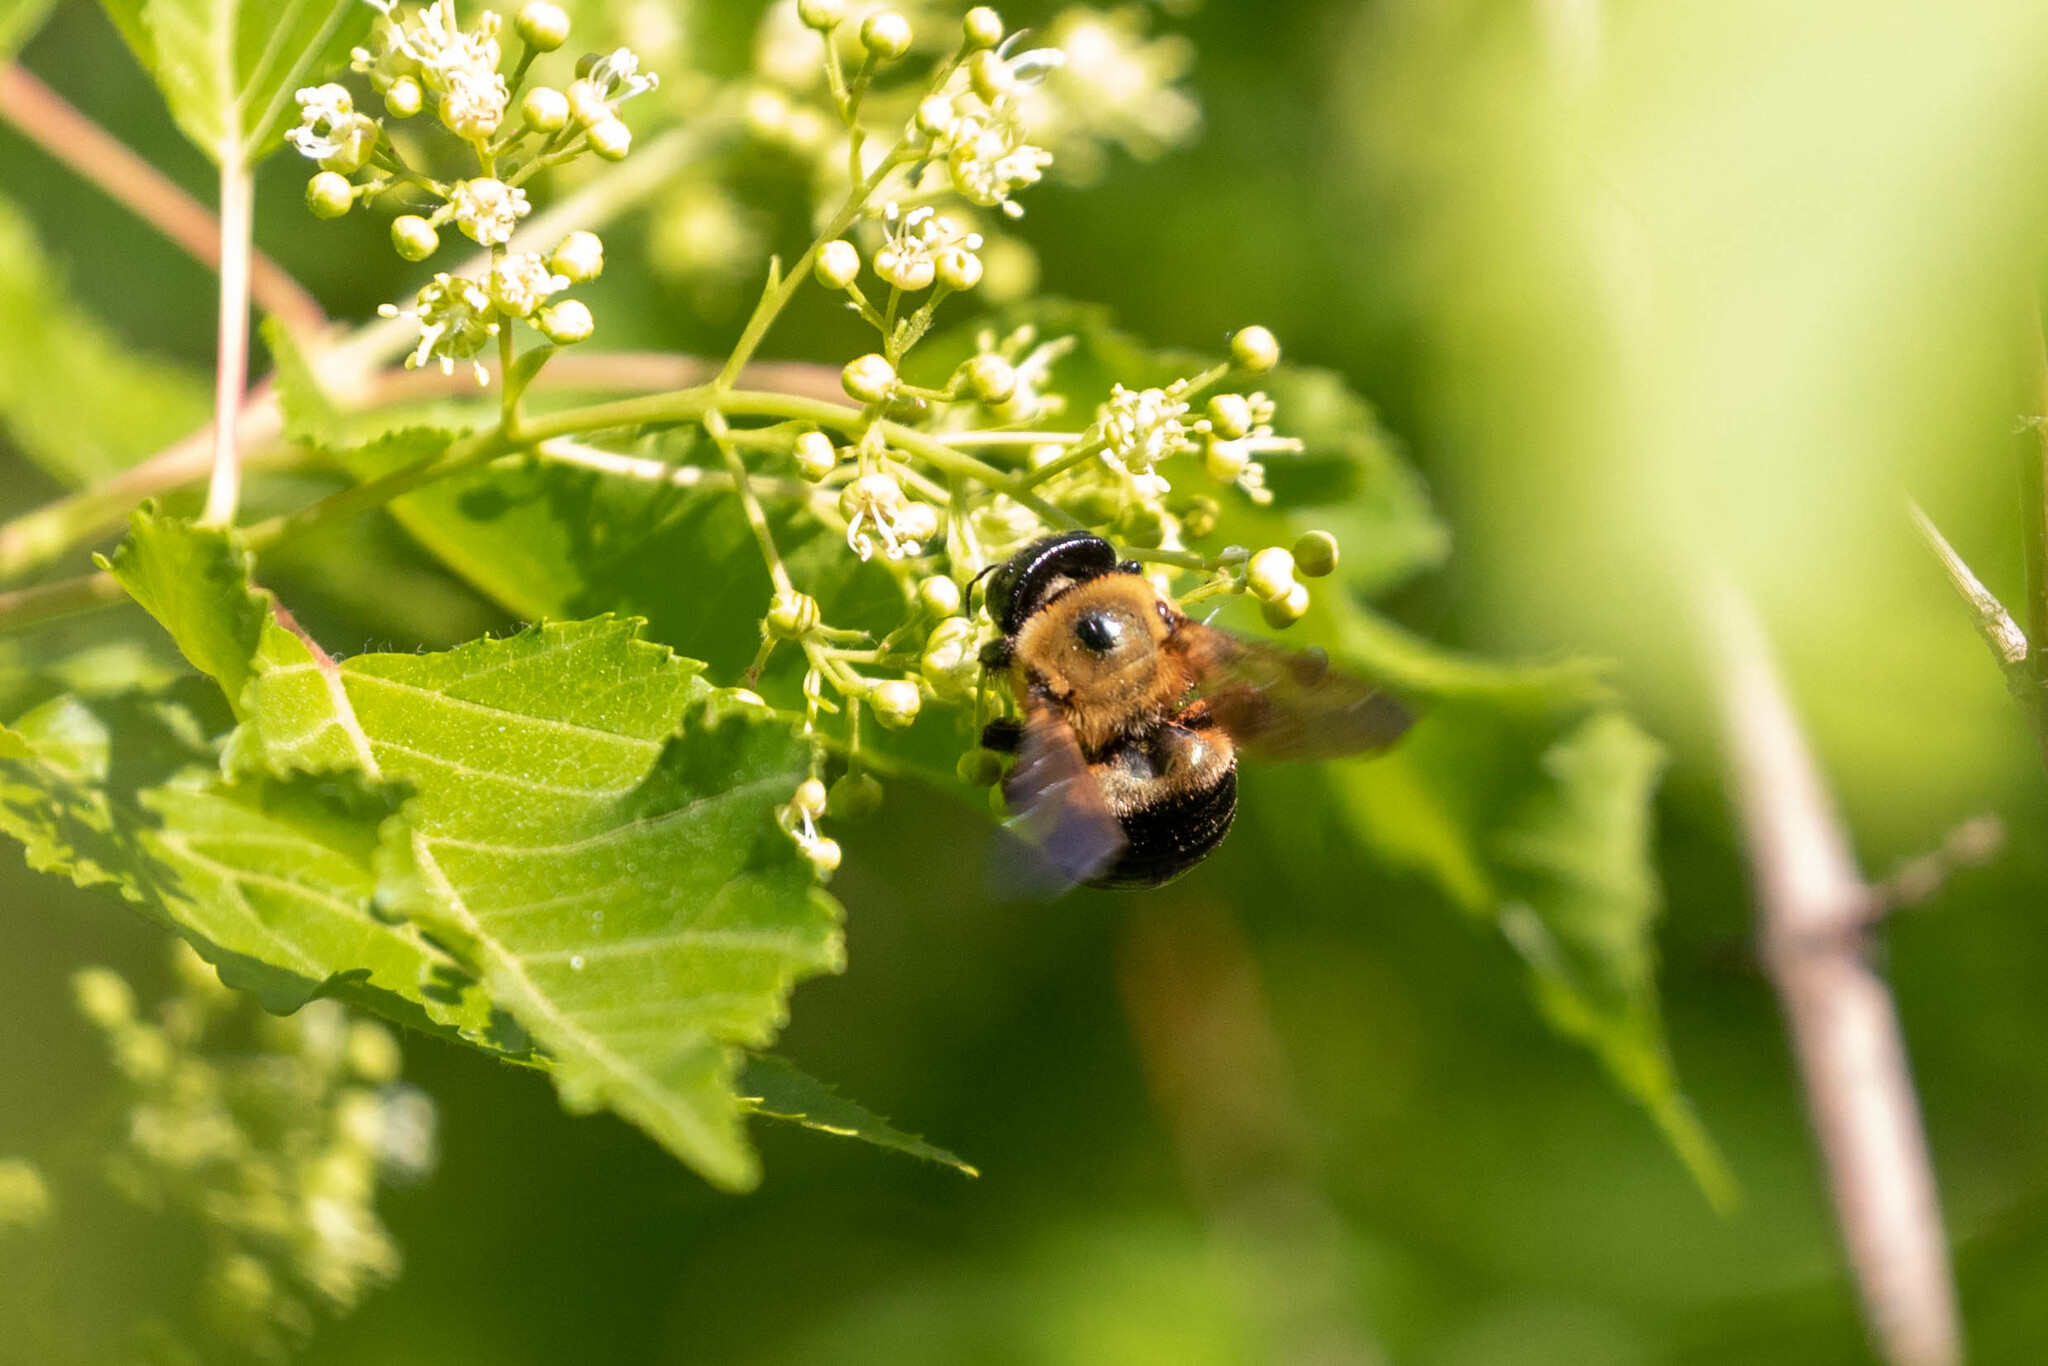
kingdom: Animalia
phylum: Arthropoda
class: Insecta
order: Hymenoptera
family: Apidae
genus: Xylocopa
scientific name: Xylocopa virginica
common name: Carpenter bee
